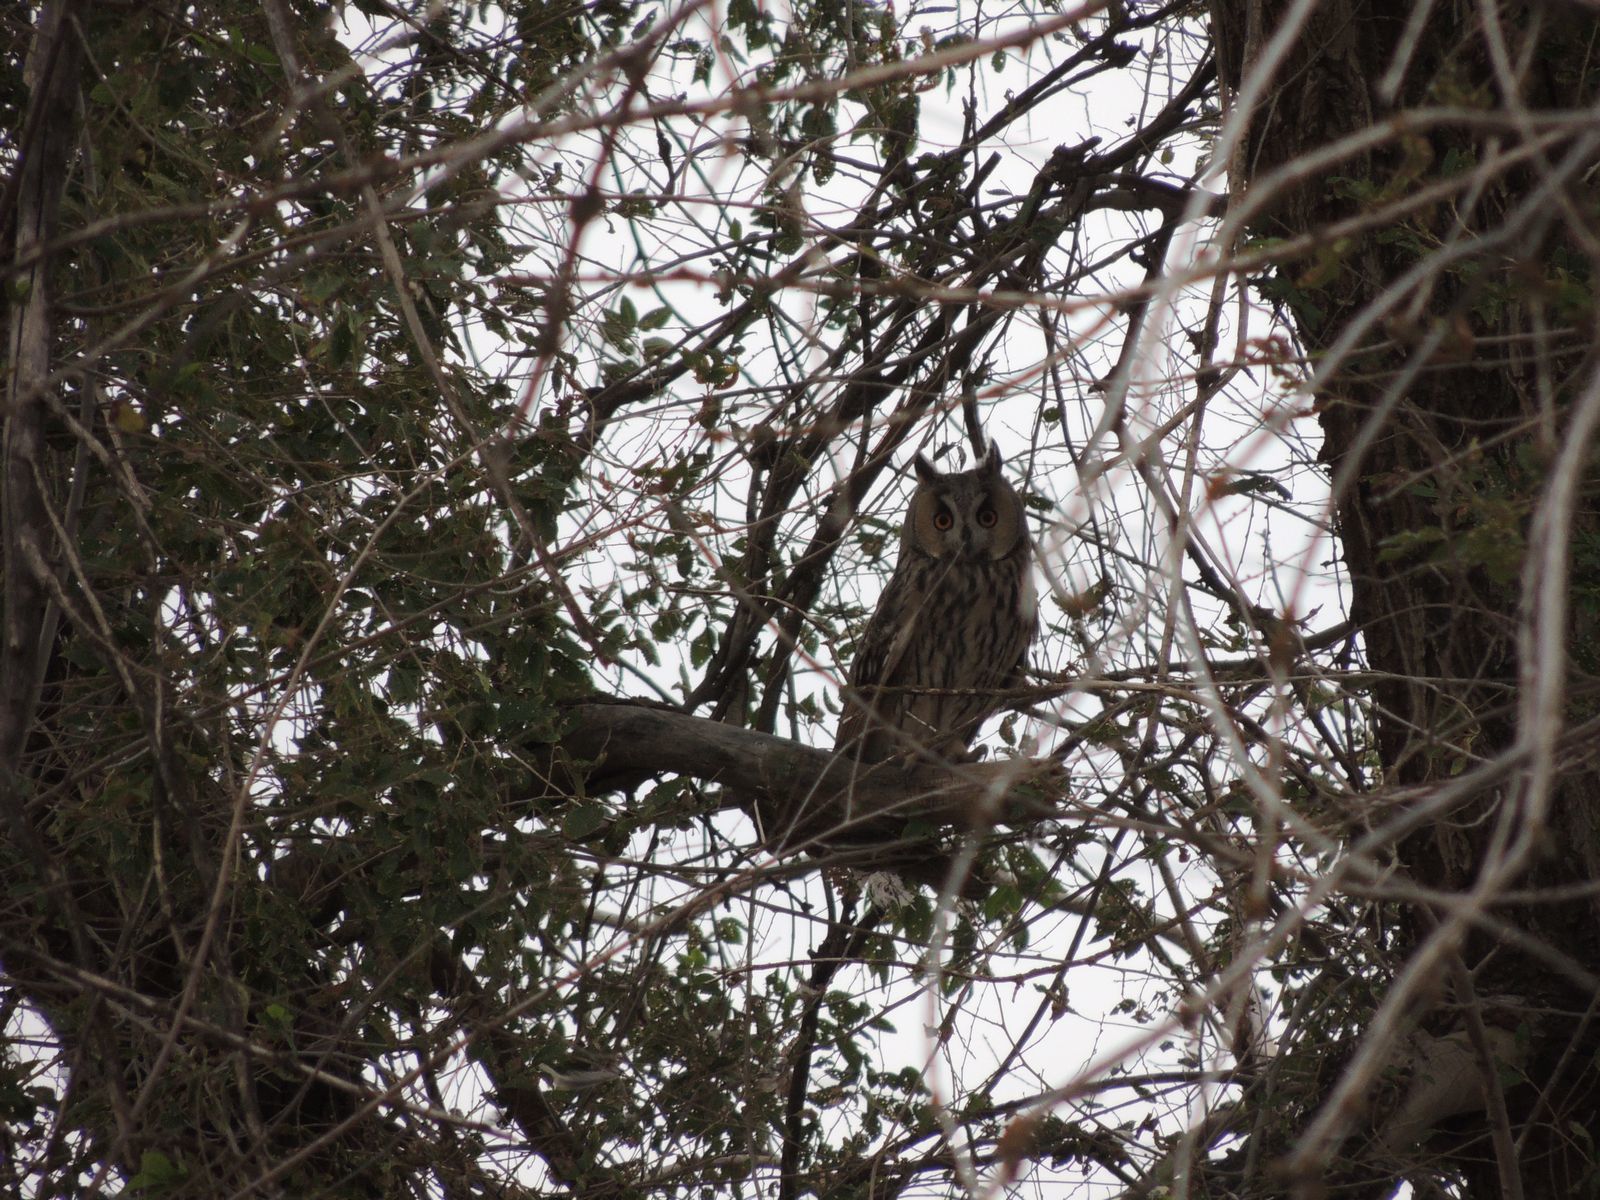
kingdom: Animalia
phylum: Chordata
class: Aves
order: Strigiformes
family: Strigidae
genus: Asio
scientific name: Asio otus
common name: Long-eared owl
